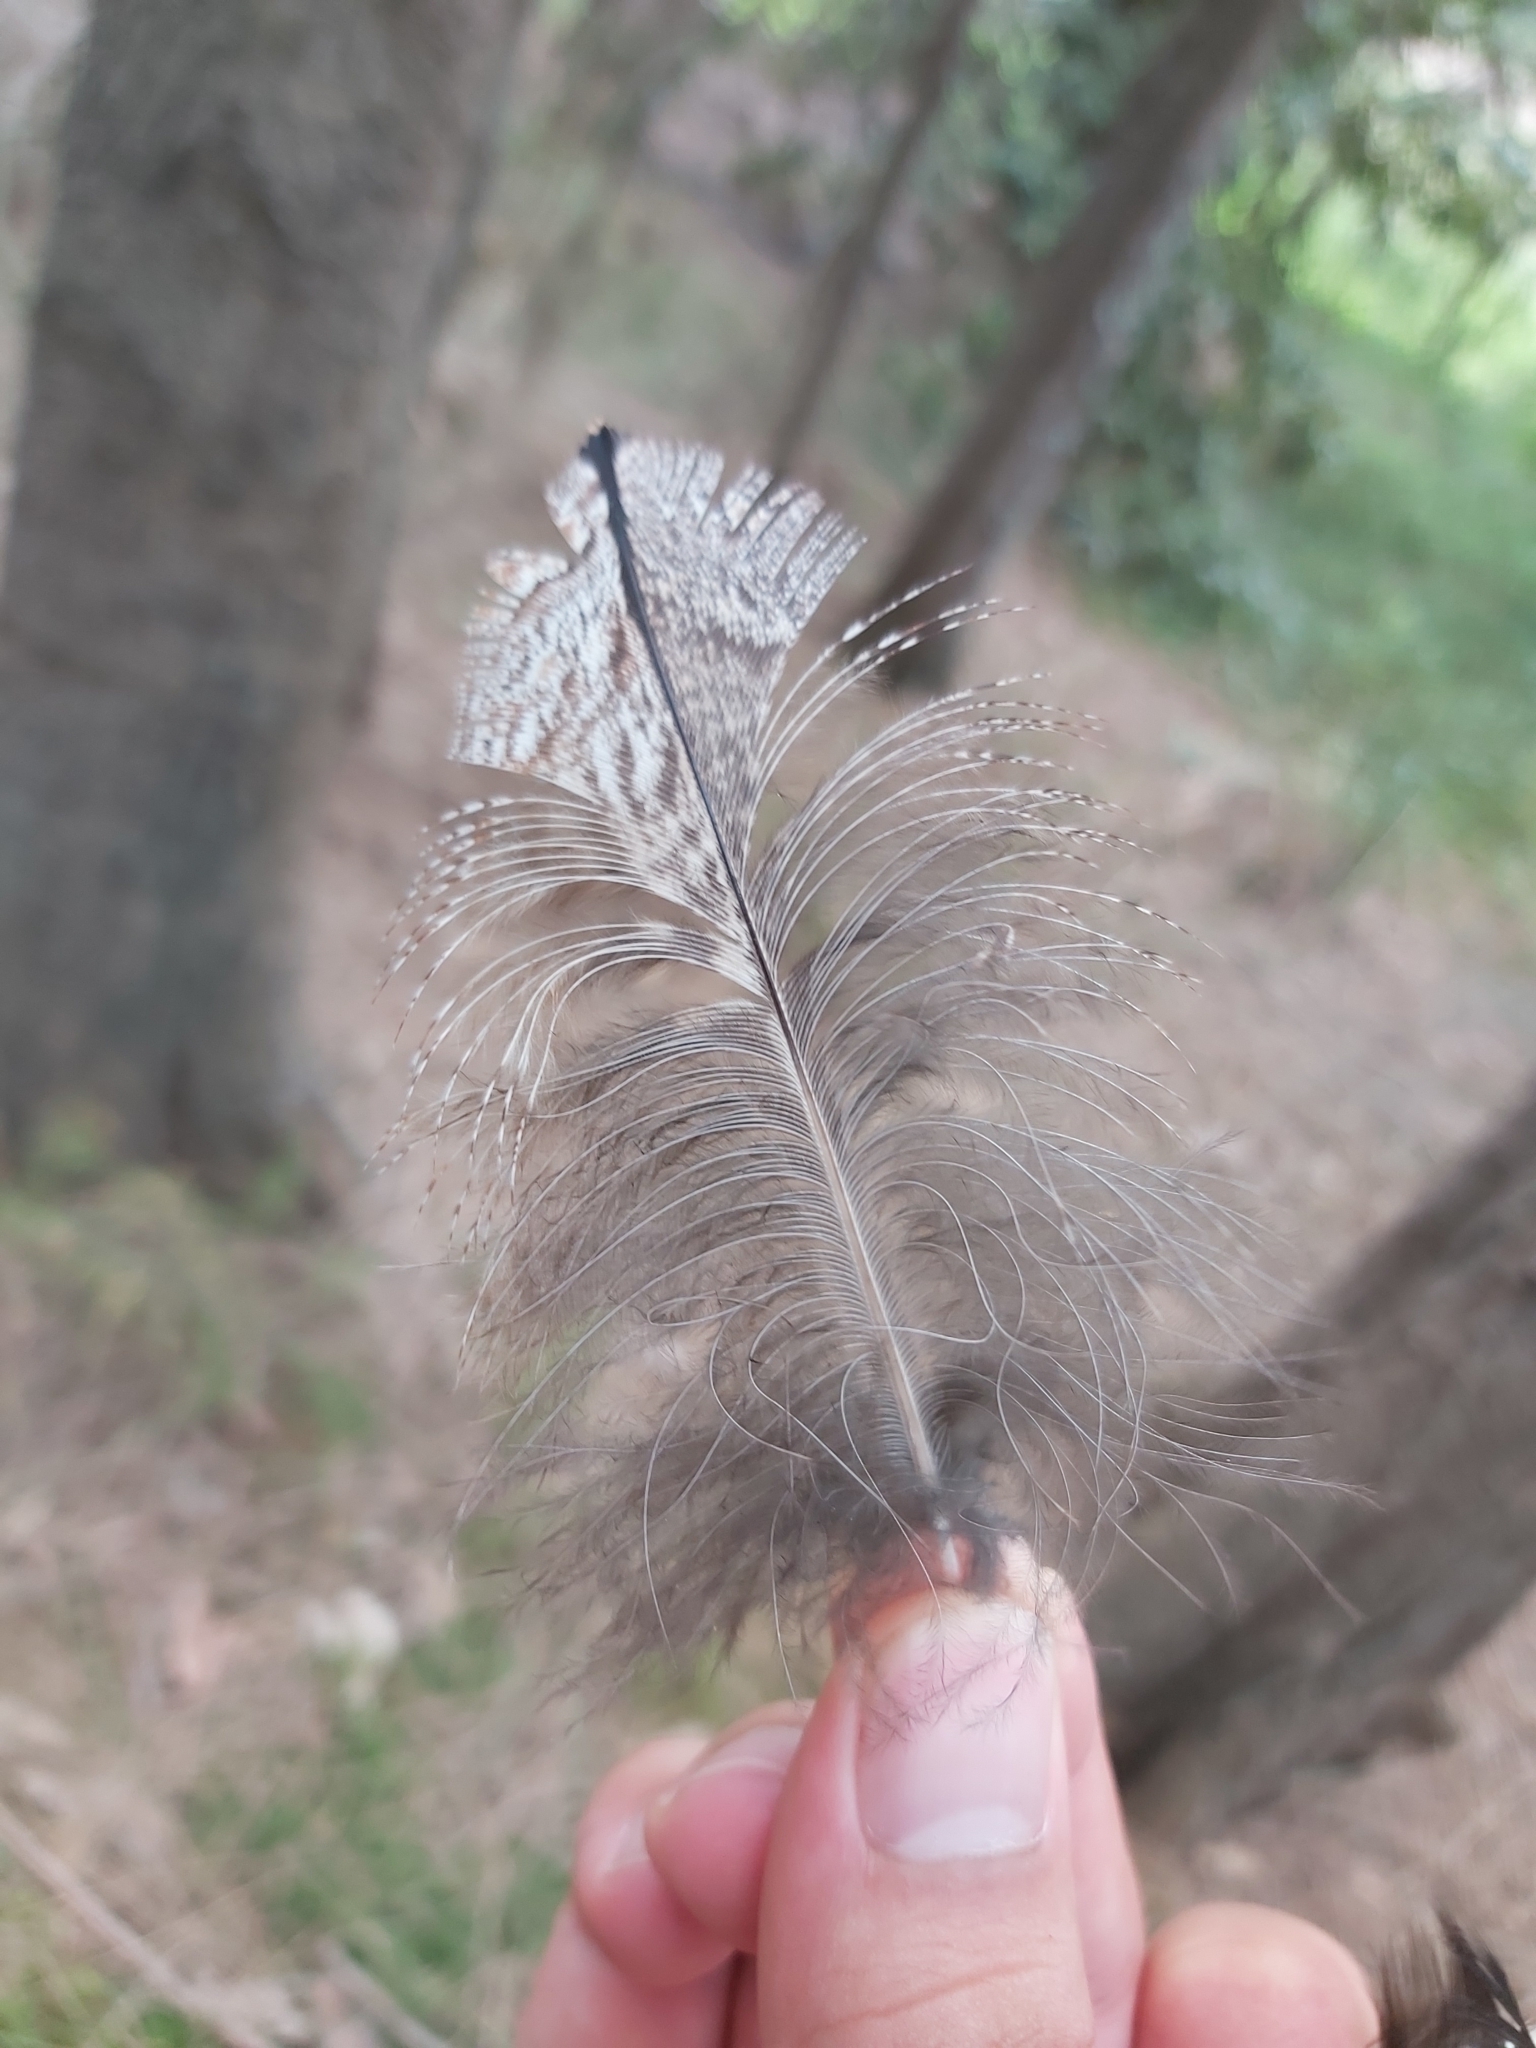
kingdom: Animalia
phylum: Chordata
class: Aves
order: Caprimulgiformes
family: Podargidae
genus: Podargus
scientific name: Podargus strigoides
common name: Tawny frogmouth
